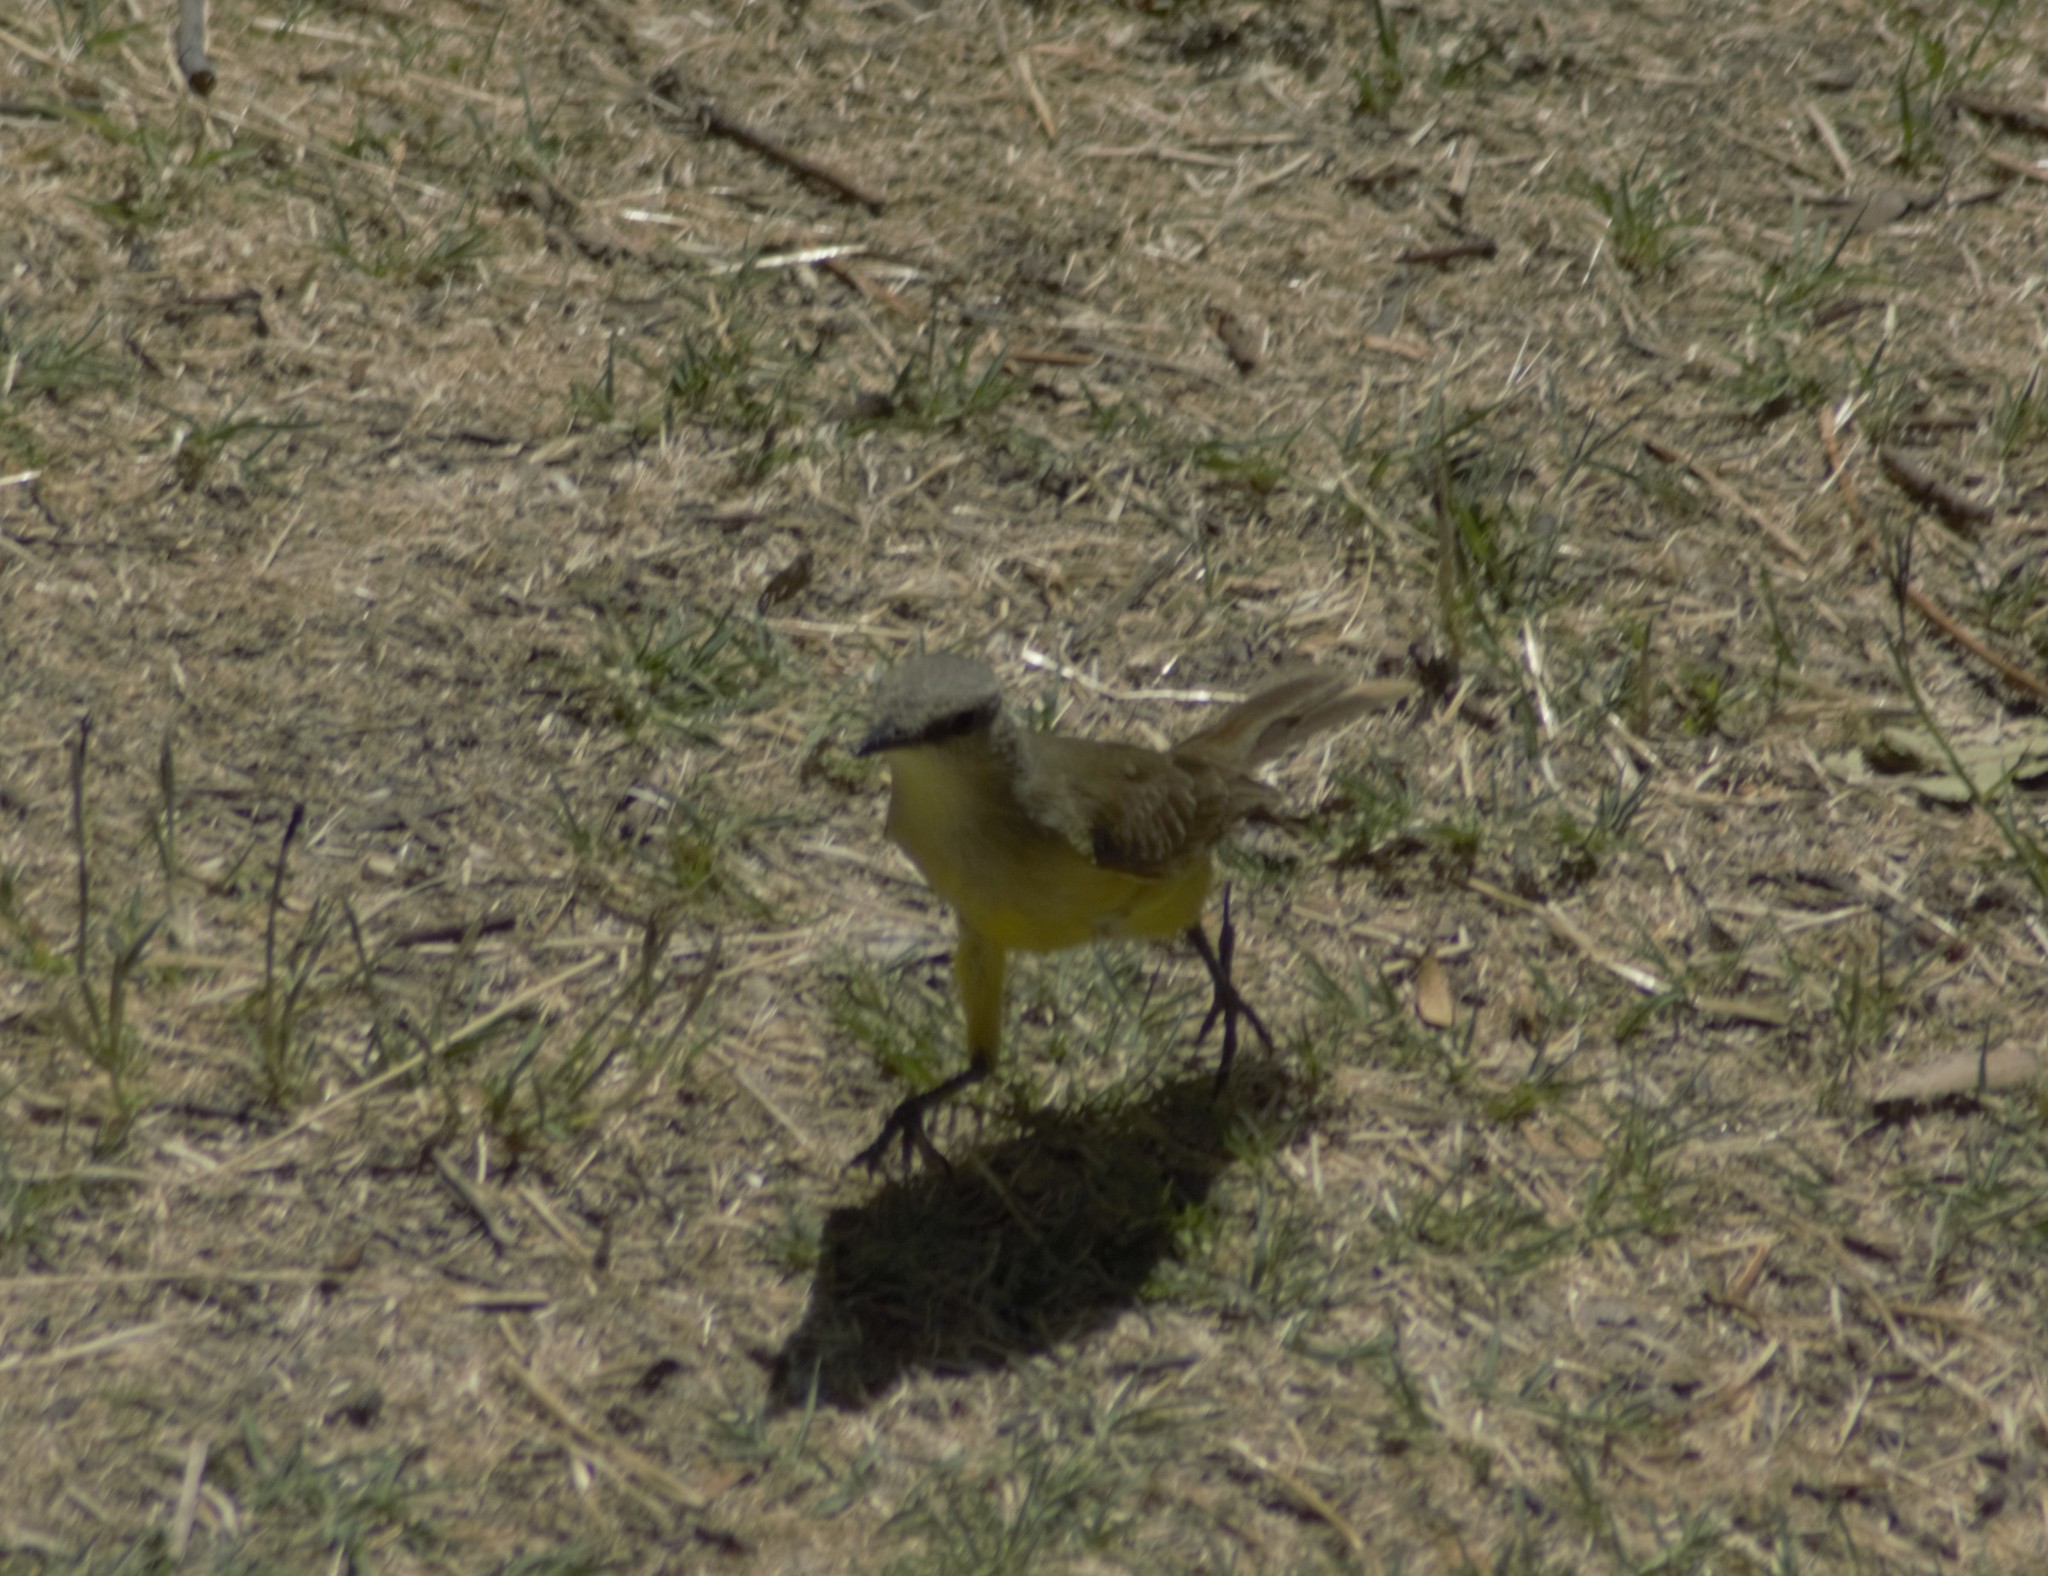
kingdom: Animalia
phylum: Chordata
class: Aves
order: Passeriformes
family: Tyrannidae
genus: Machetornis
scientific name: Machetornis rixosa
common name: Cattle tyrant
